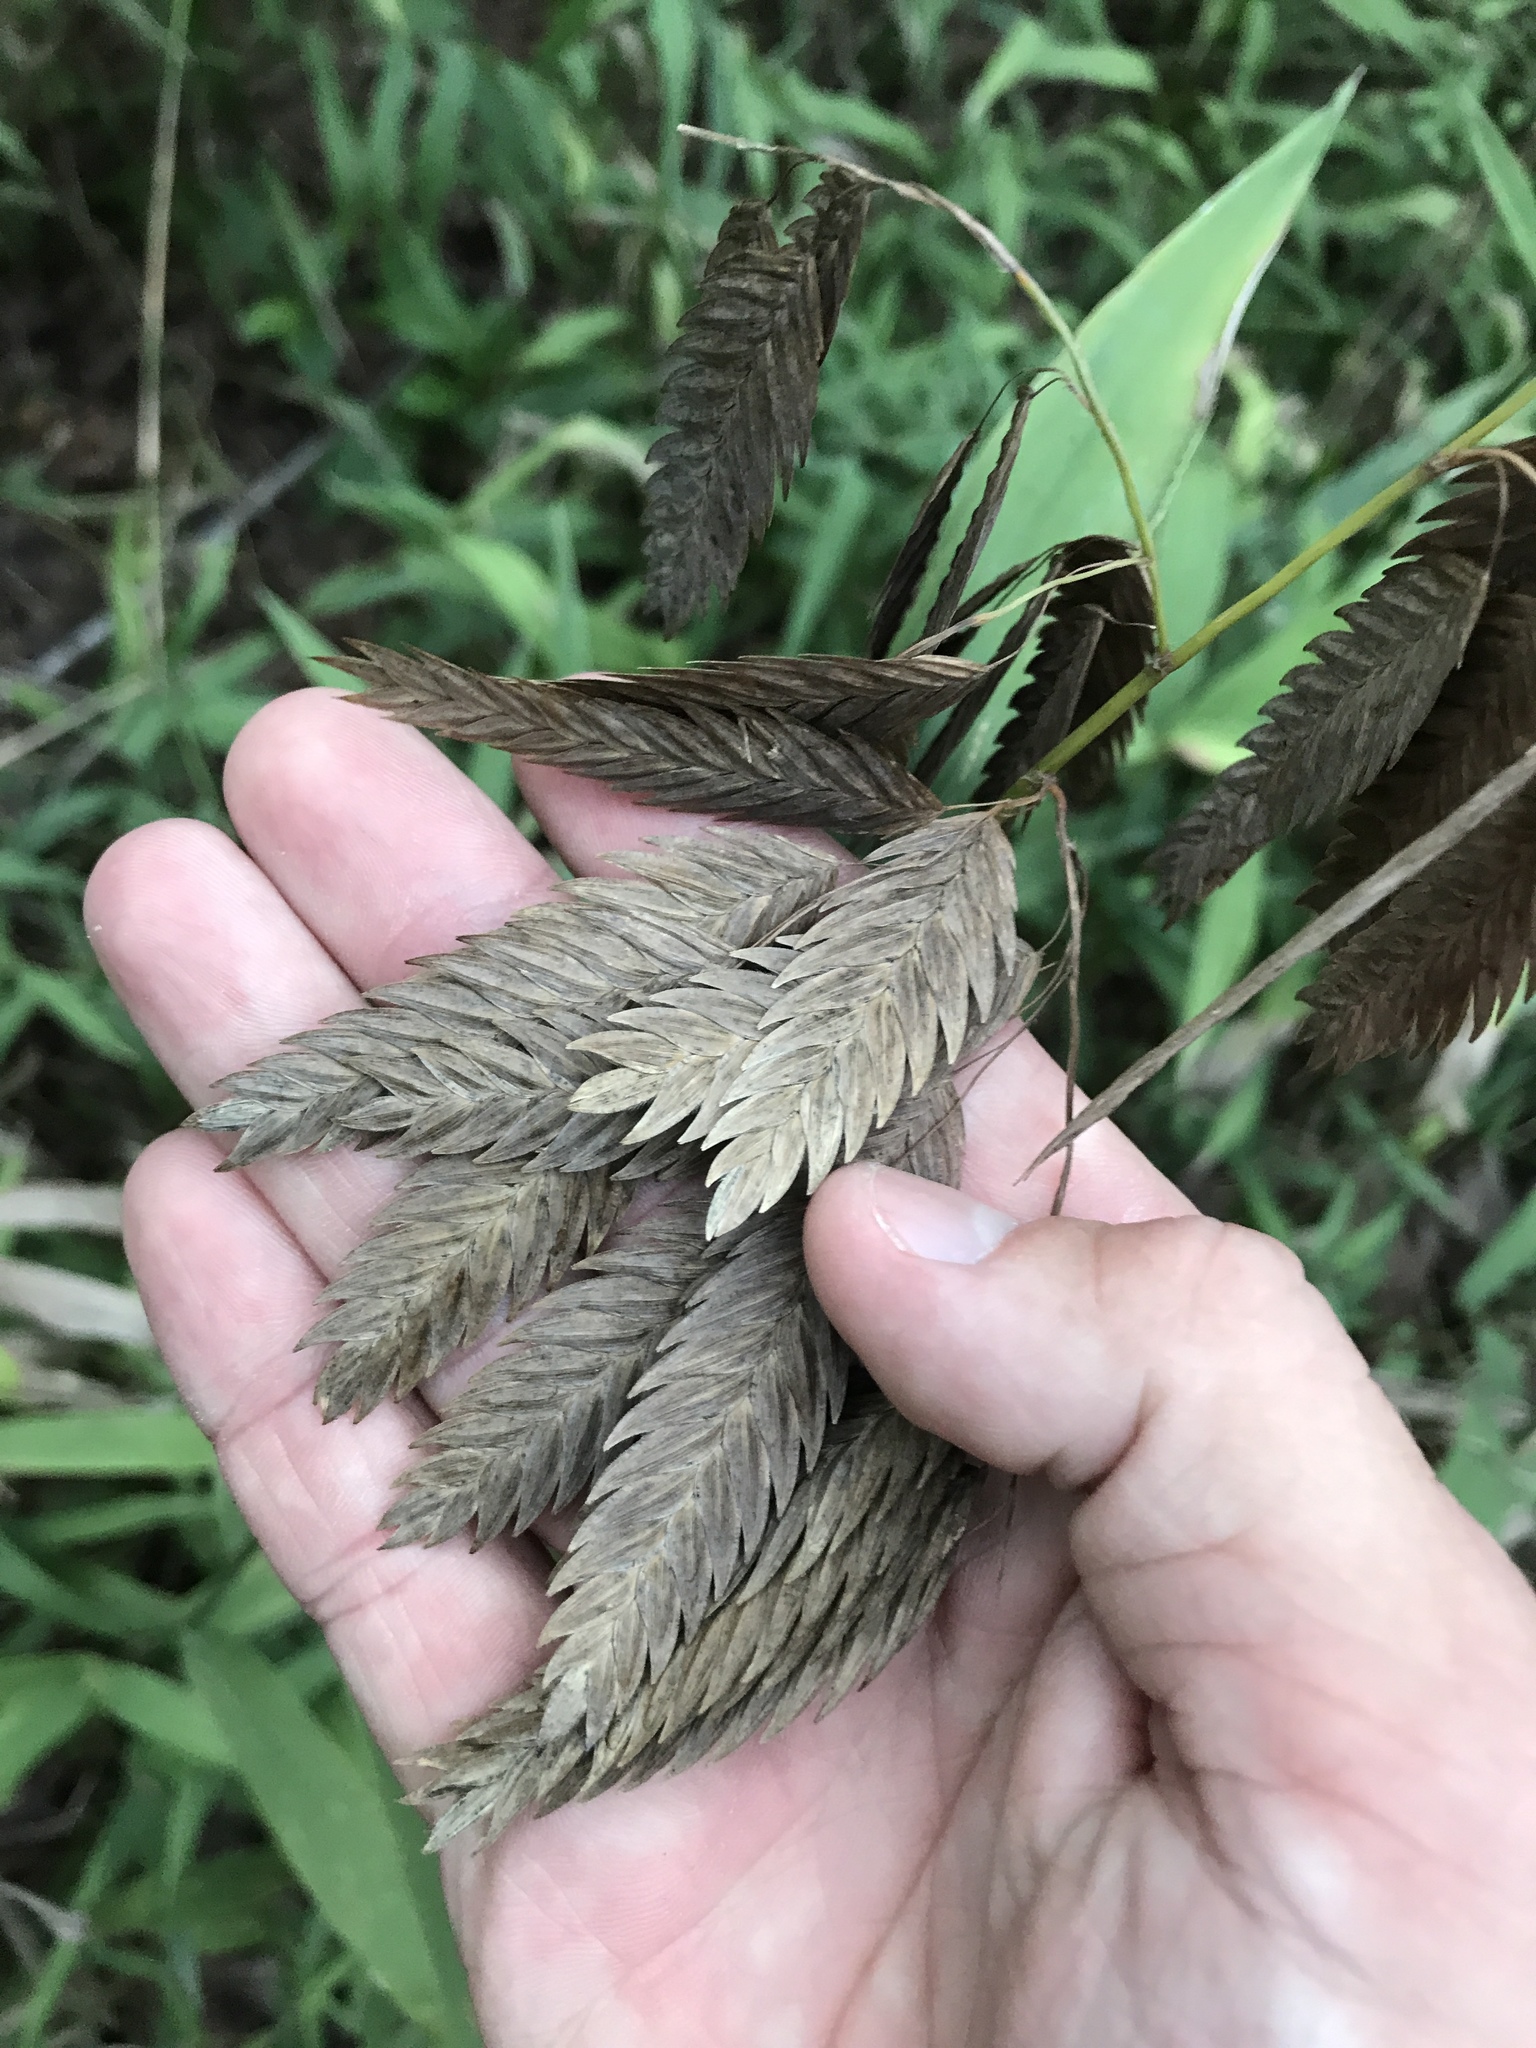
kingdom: Plantae
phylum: Tracheophyta
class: Liliopsida
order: Poales
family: Poaceae
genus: Chasmanthium
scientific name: Chasmanthium latifolium
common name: Broad-leaved chasmanthium
